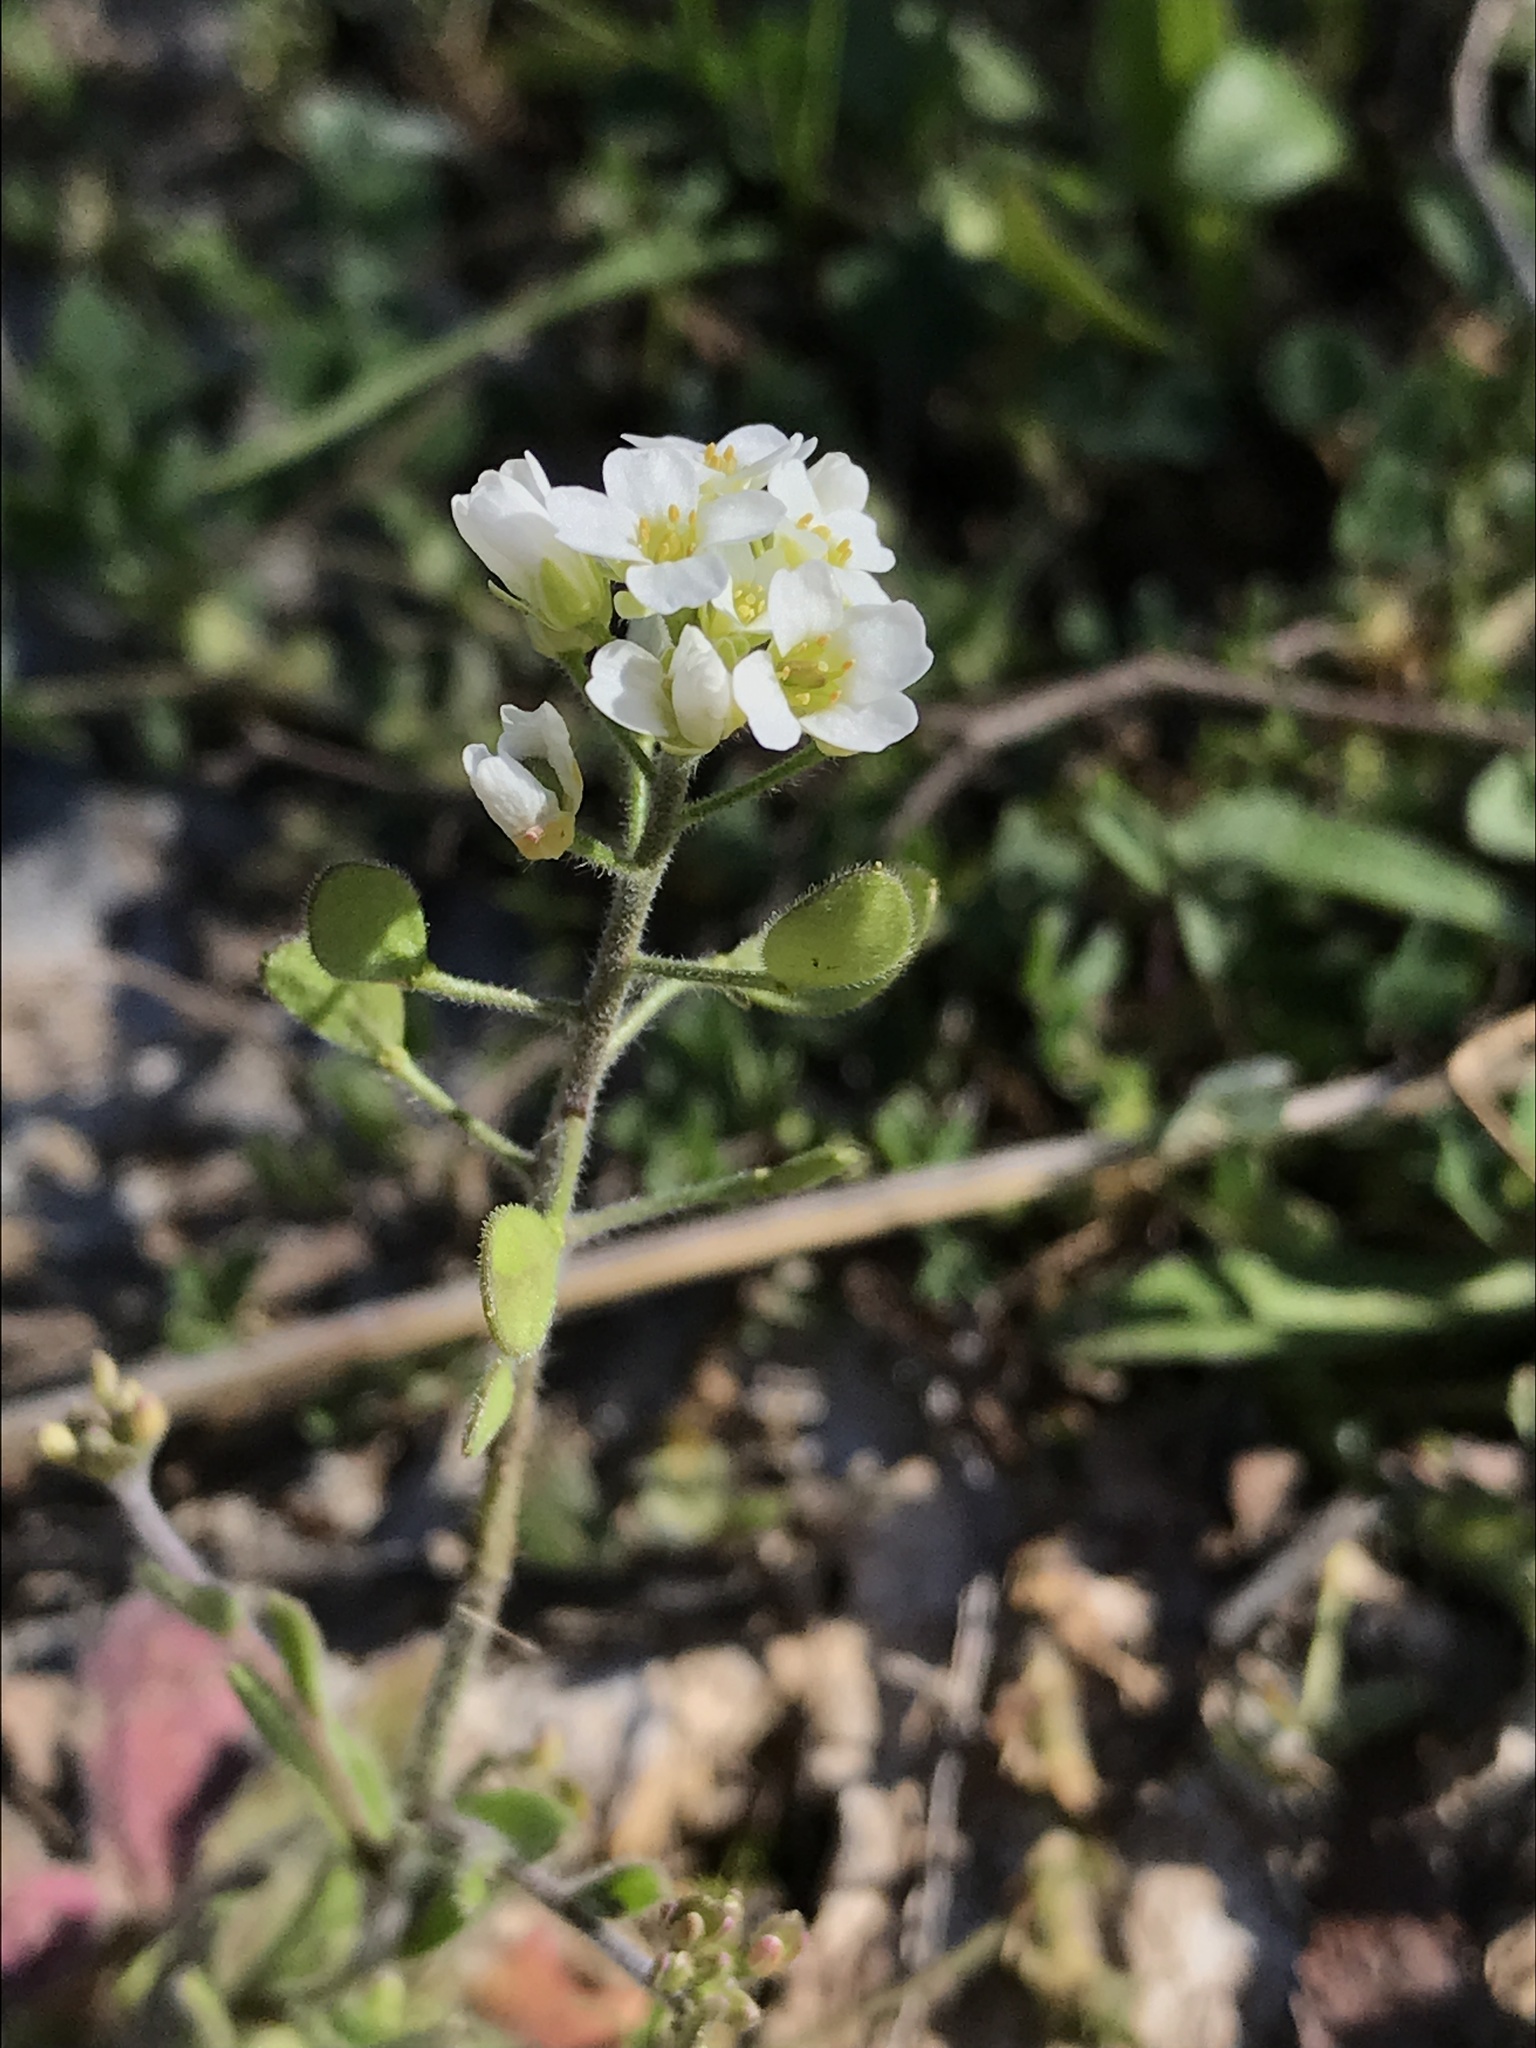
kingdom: Plantae
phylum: Tracheophyta
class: Magnoliopsida
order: Brassicales
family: Brassicaceae
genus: Tomostima
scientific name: Tomostima platycarpa
